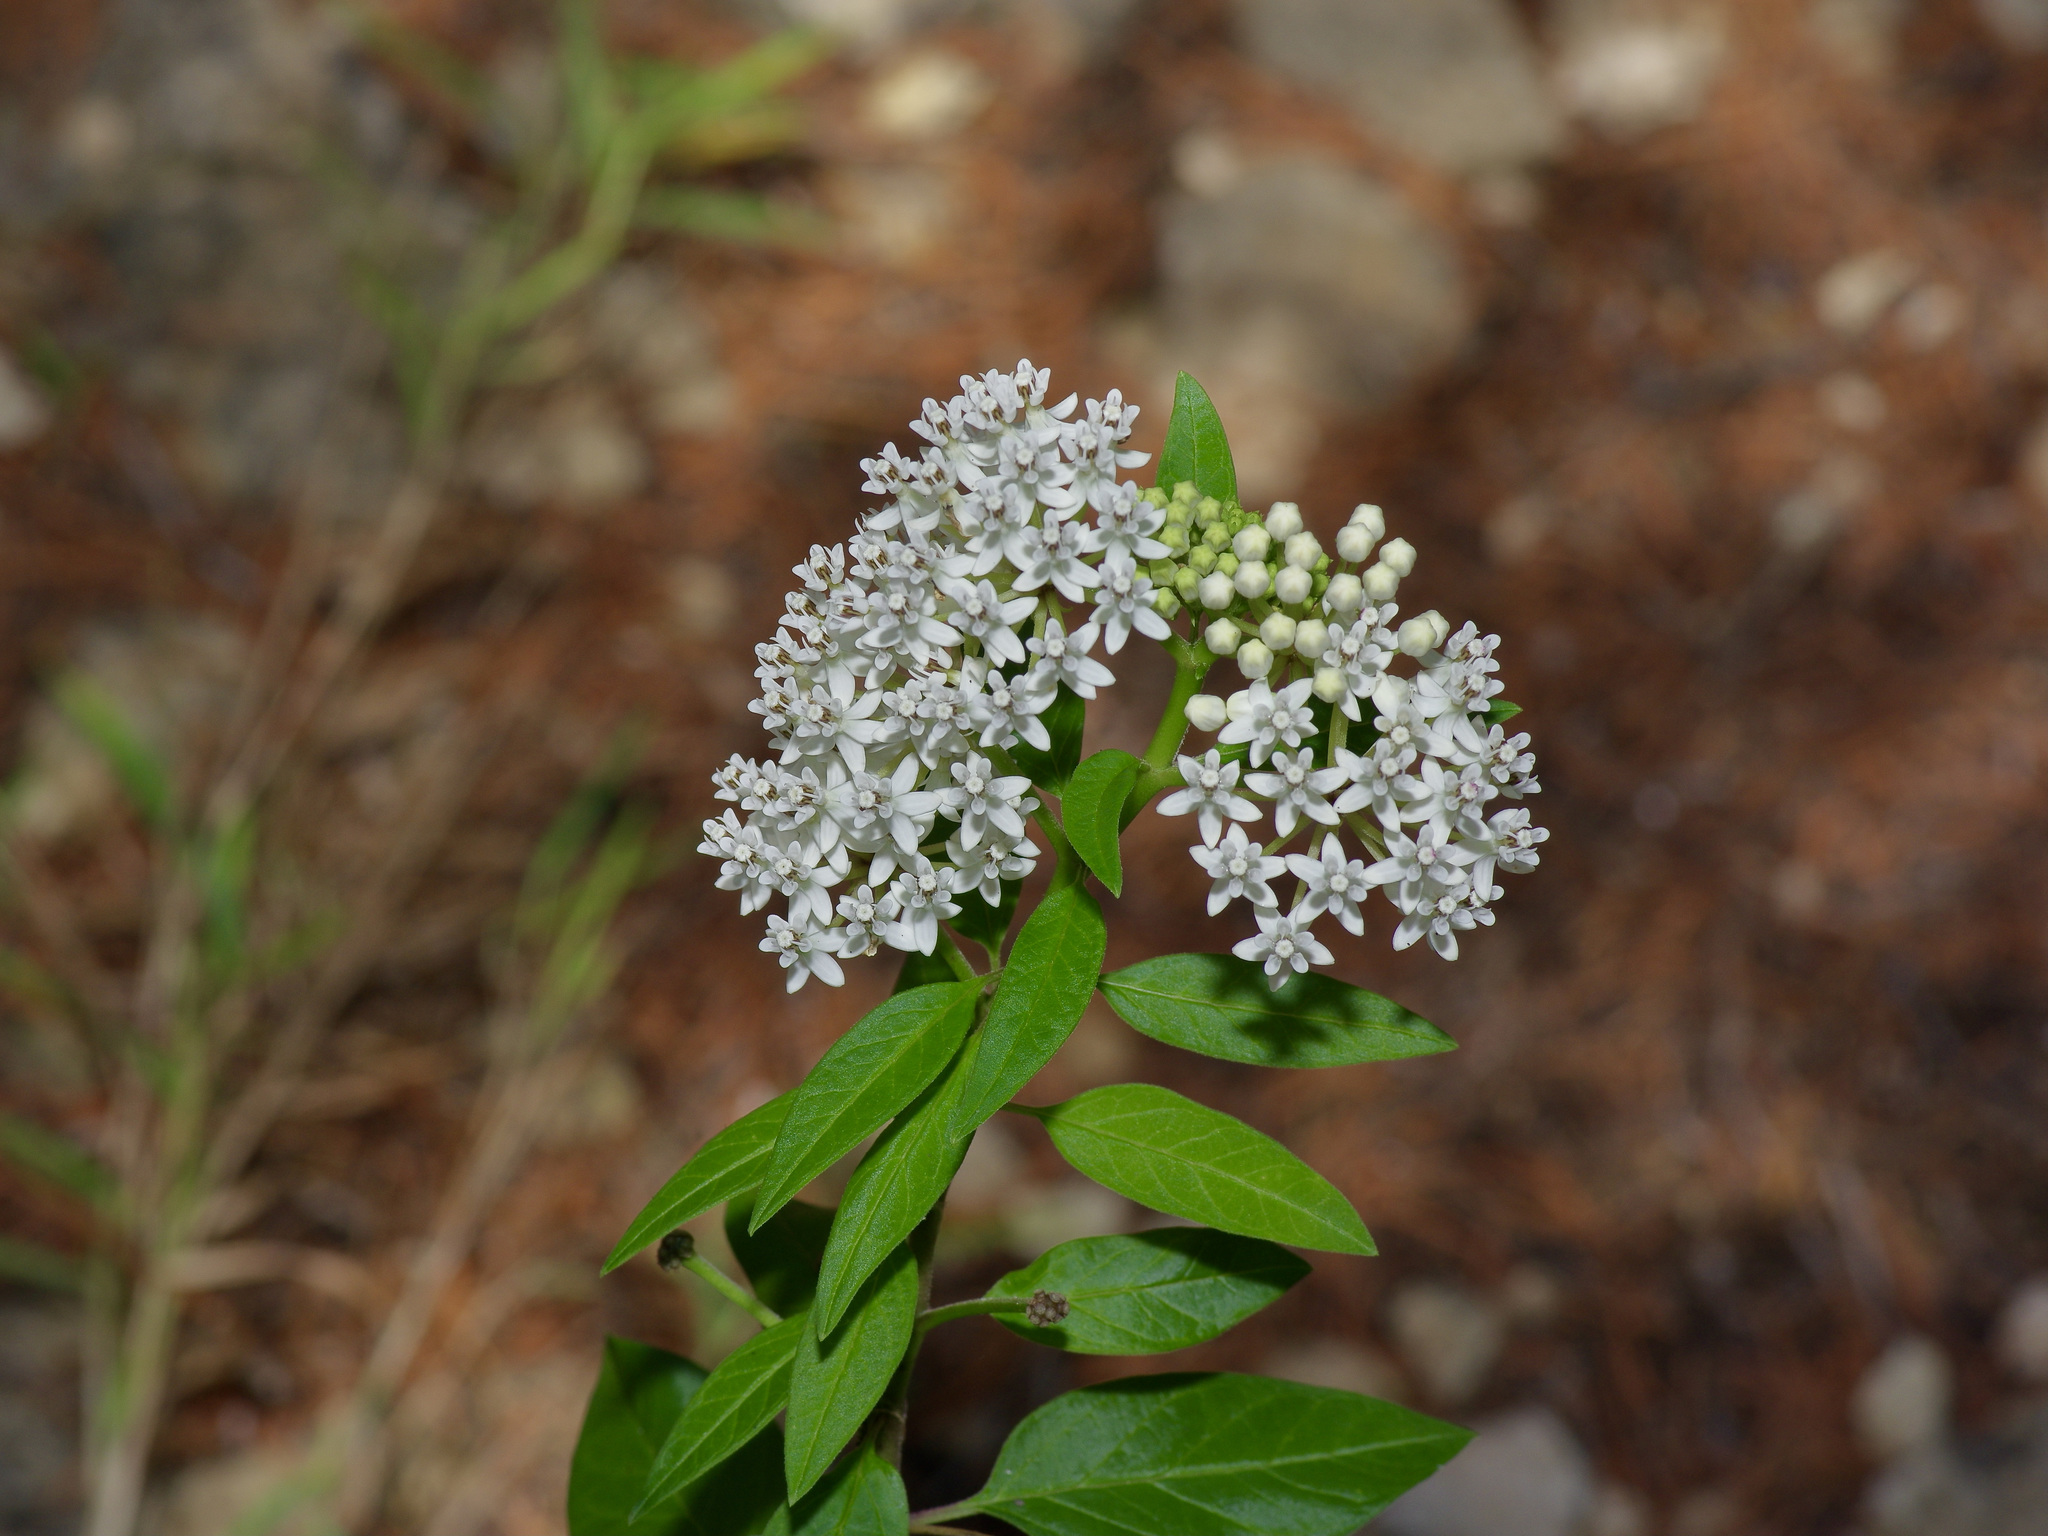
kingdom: Plantae
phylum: Tracheophyta
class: Magnoliopsida
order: Gentianales
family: Apocynaceae
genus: Asclepias
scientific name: Asclepias texana
